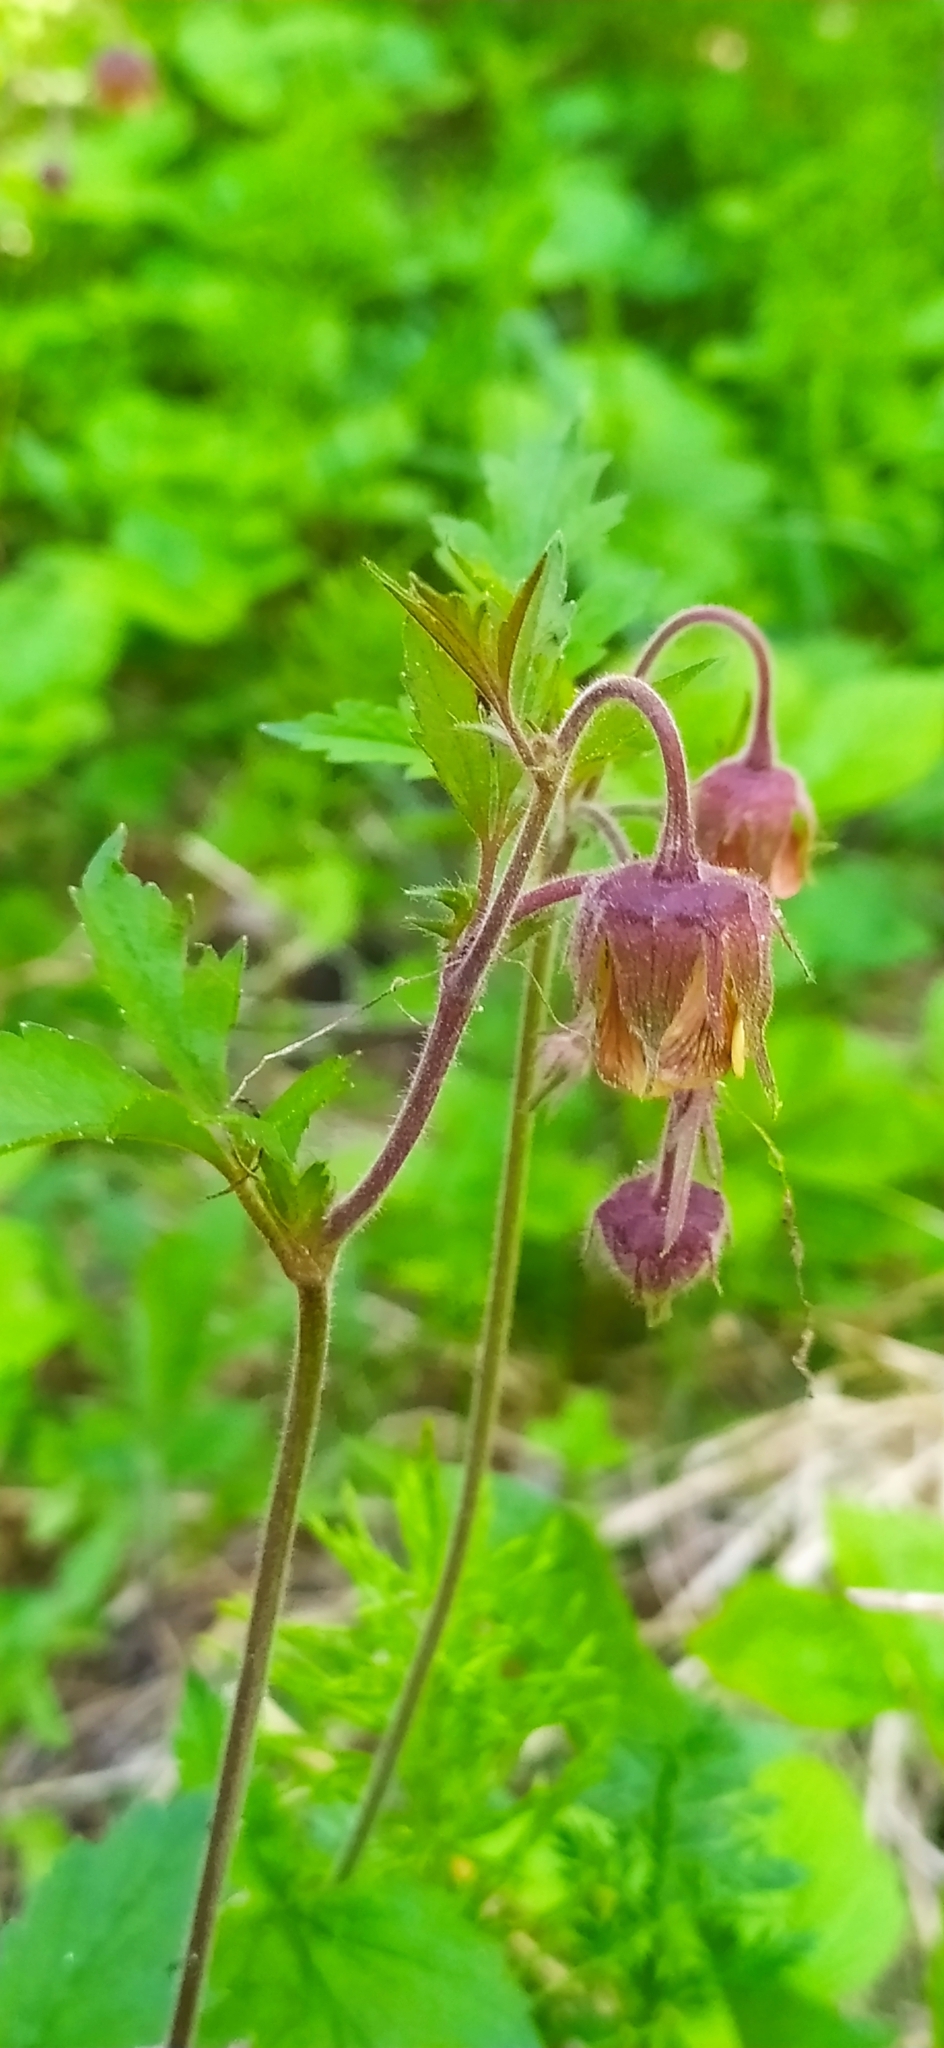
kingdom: Plantae
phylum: Tracheophyta
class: Magnoliopsida
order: Rosales
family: Rosaceae
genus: Geum
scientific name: Geum rivale
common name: Water avens
